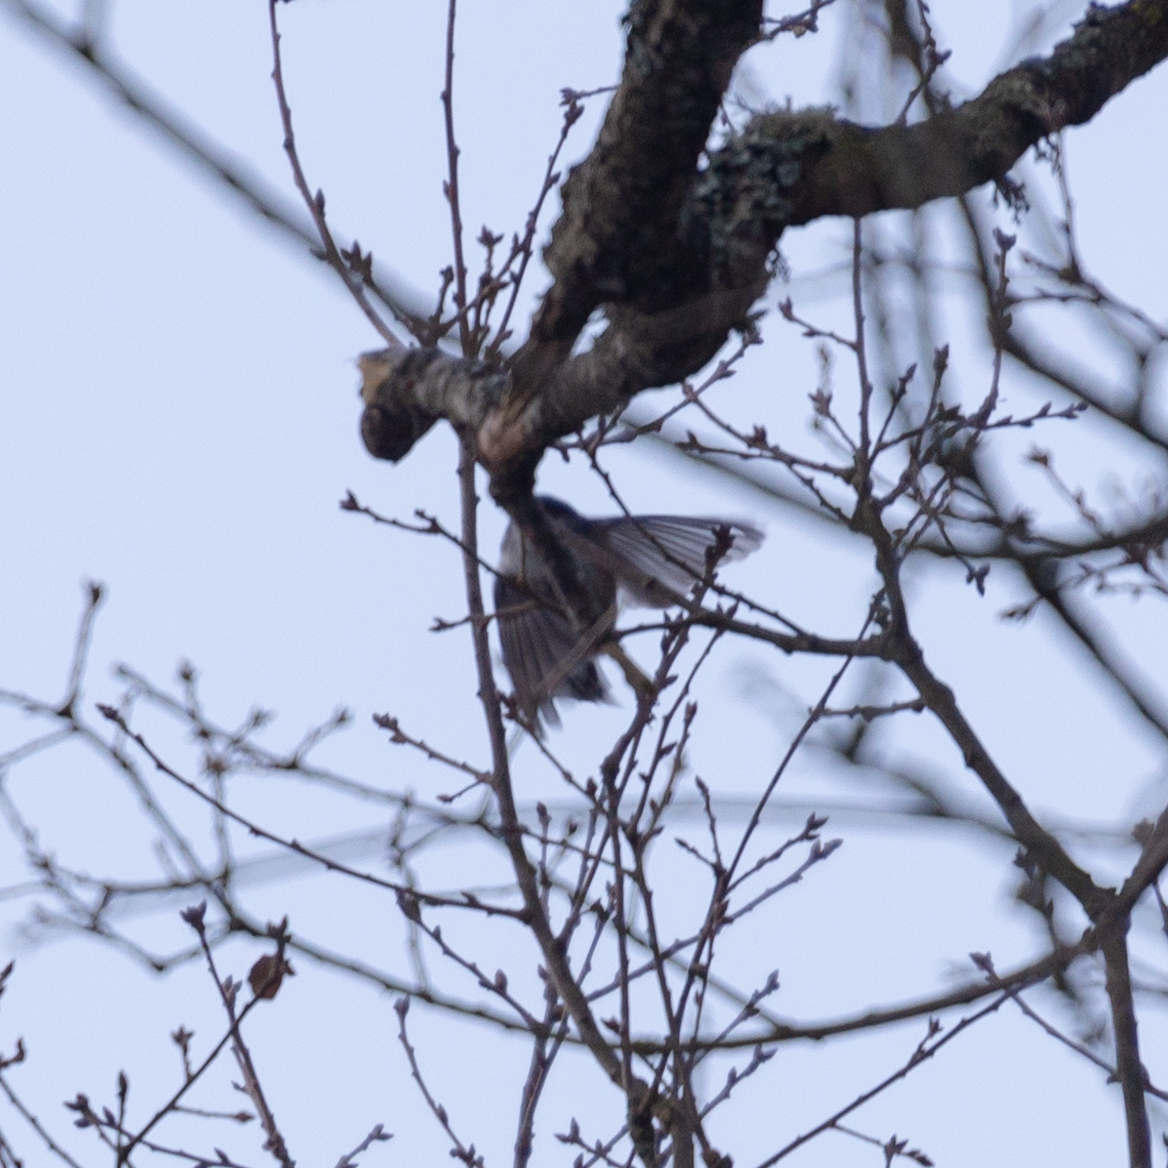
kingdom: Animalia
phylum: Chordata
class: Aves
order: Passeriformes
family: Aegithalidae
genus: Aegithalos
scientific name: Aegithalos caudatus
